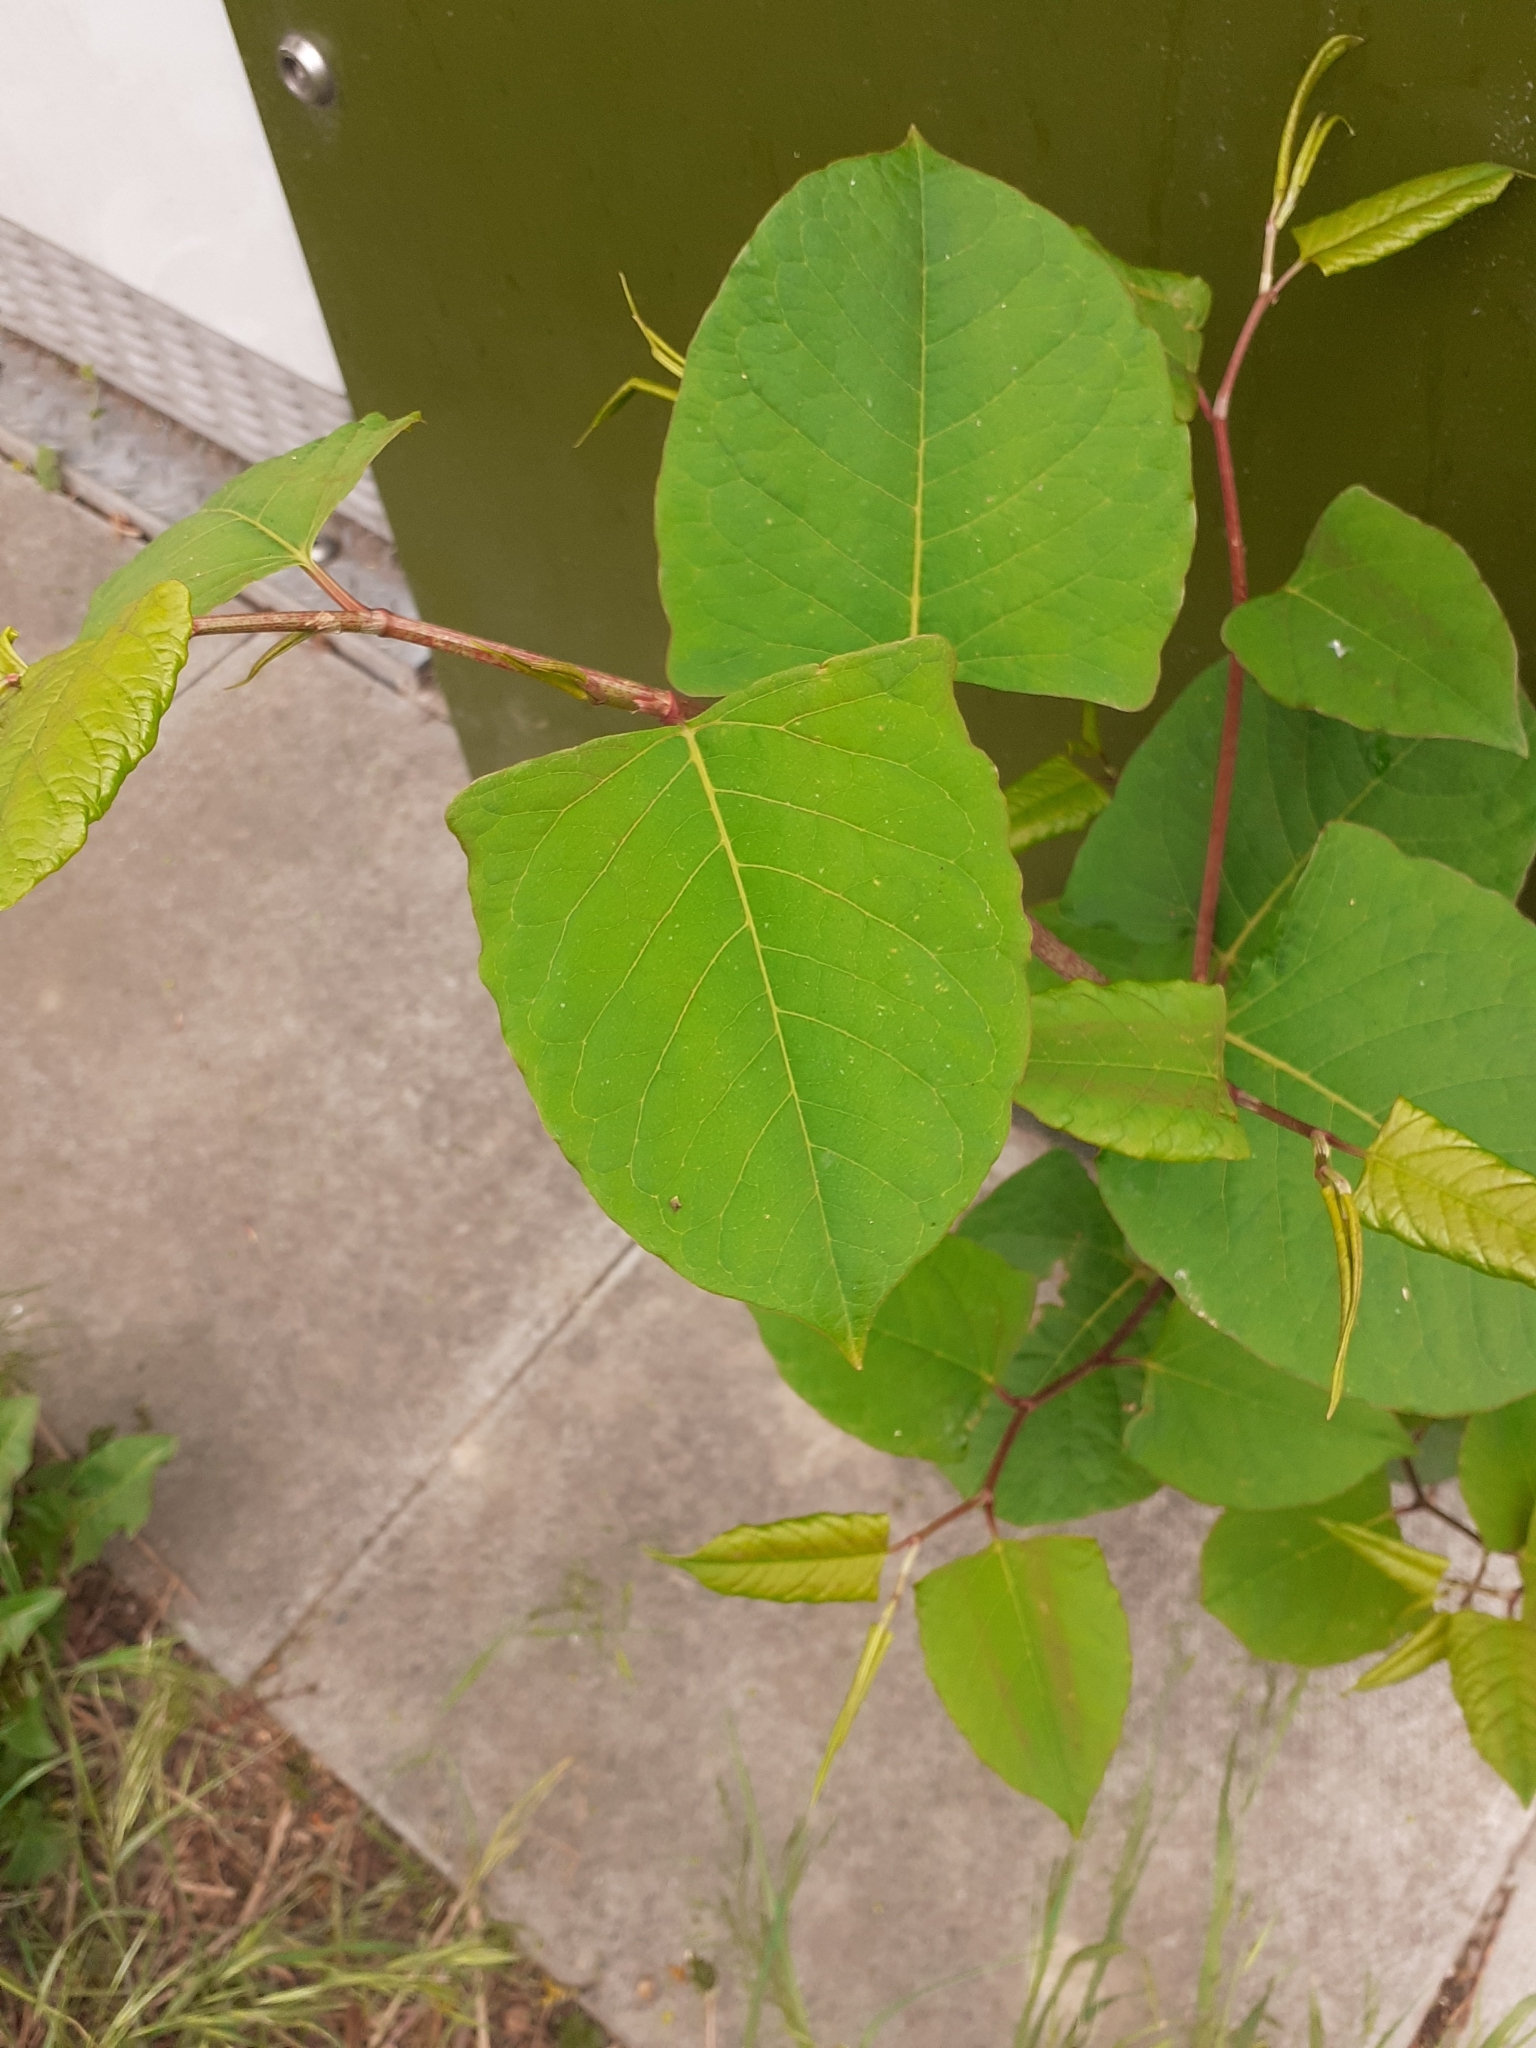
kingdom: Plantae
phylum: Tracheophyta
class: Magnoliopsida
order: Caryophyllales
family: Polygonaceae
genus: Reynoutria
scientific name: Reynoutria japonica
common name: Japanese knotweed
